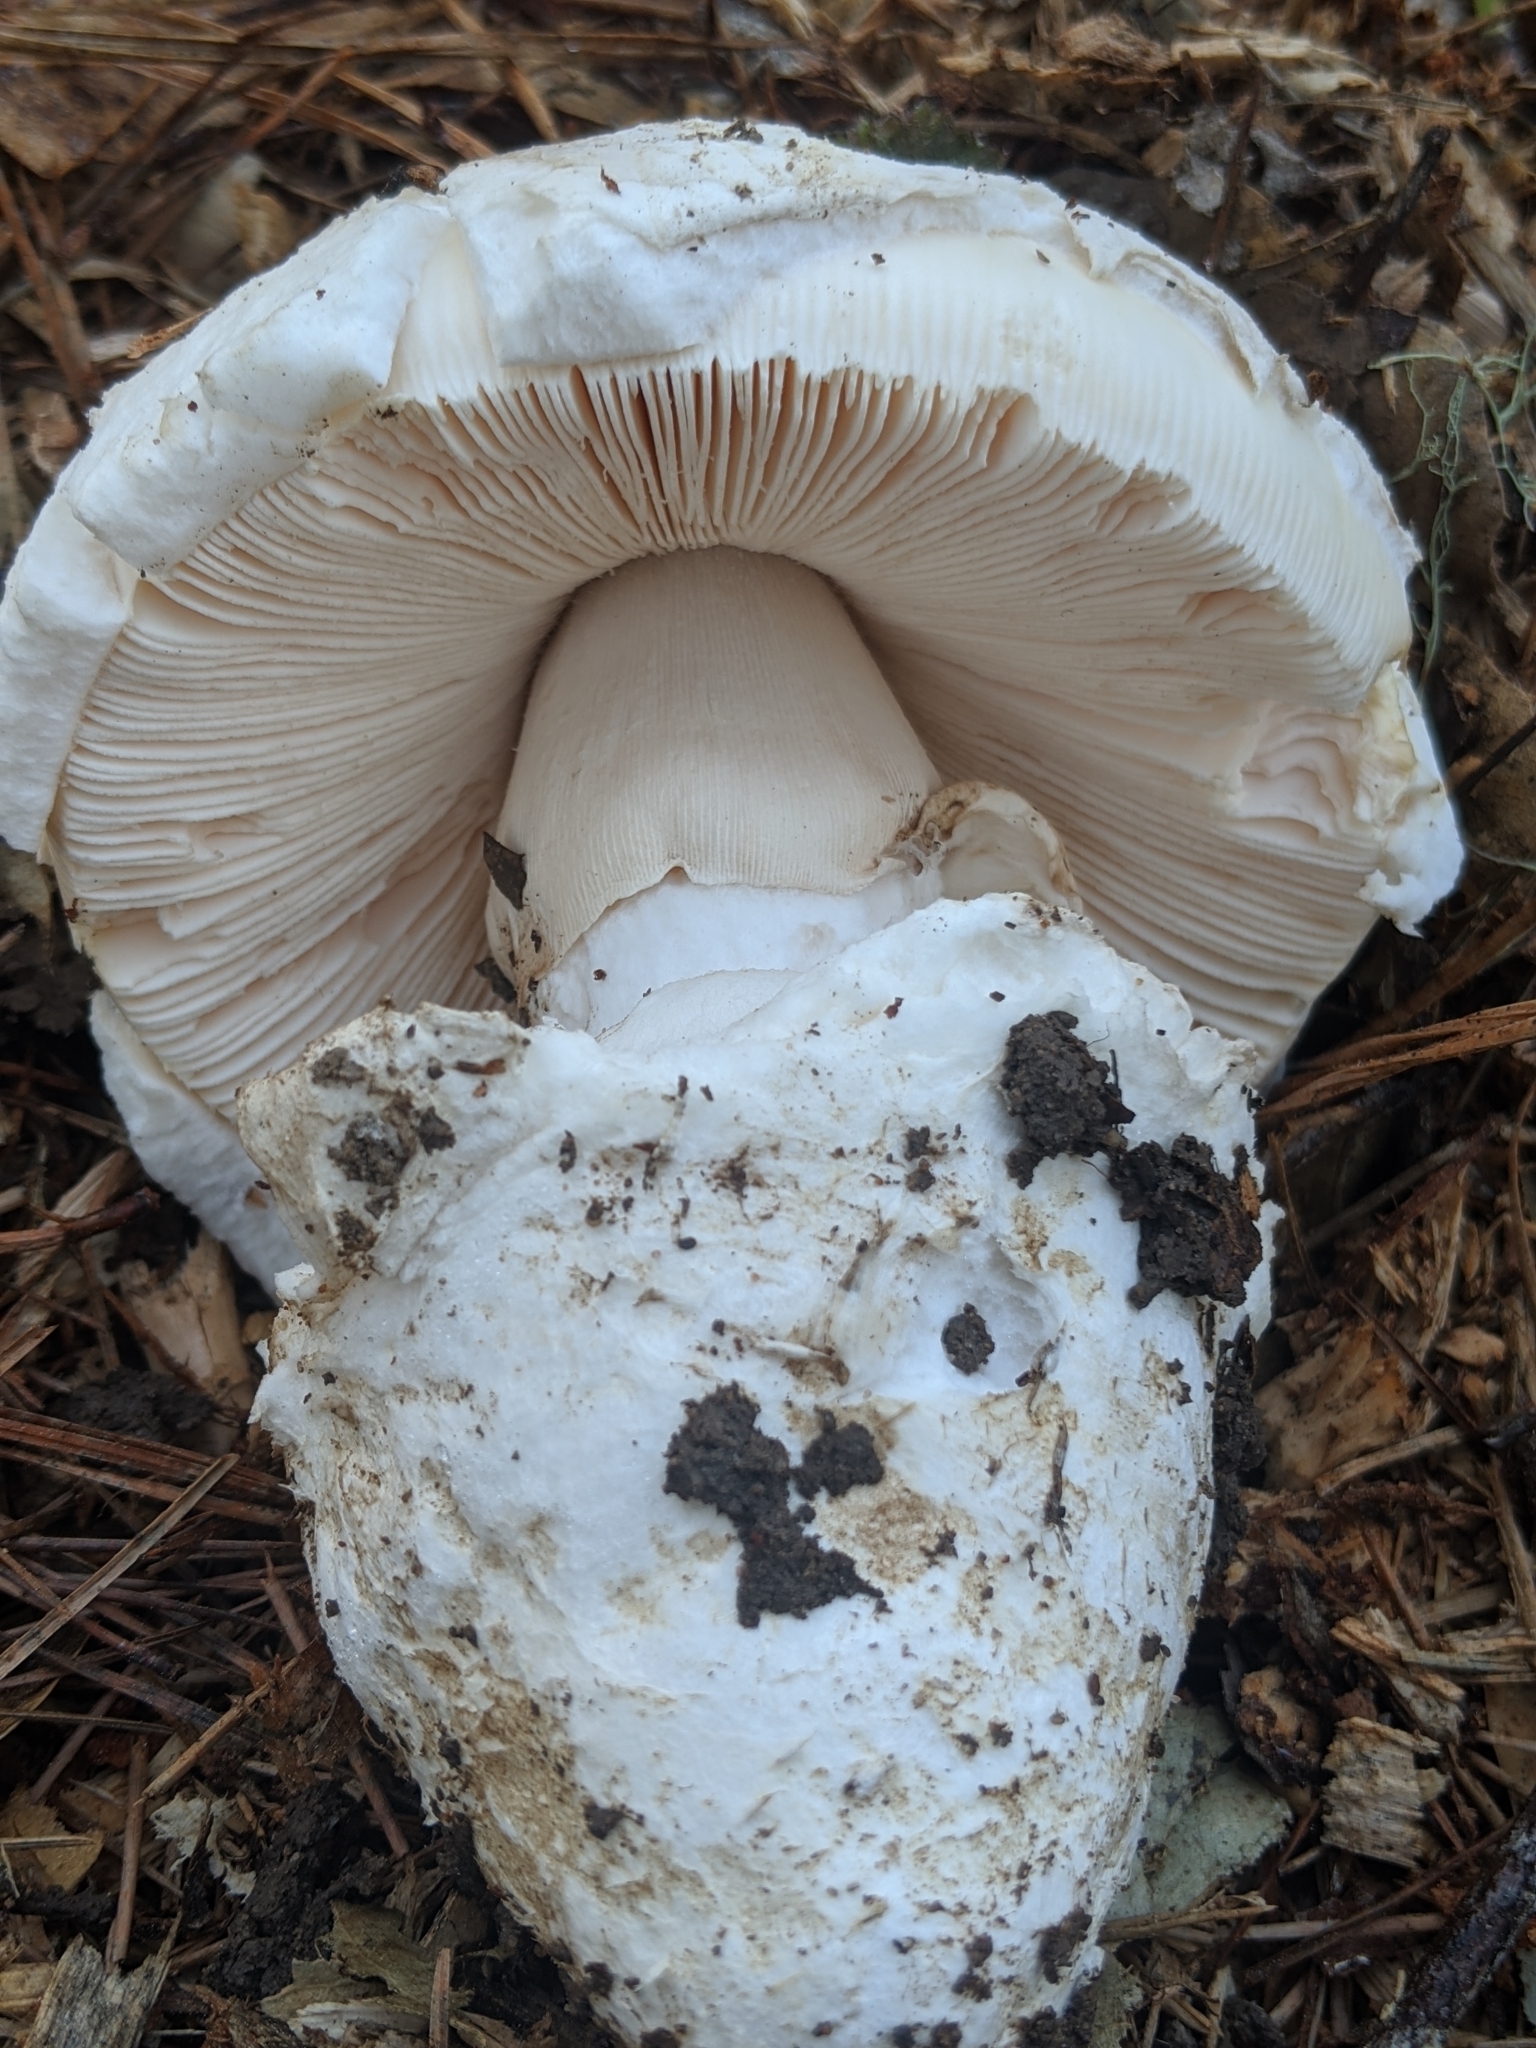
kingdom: Fungi
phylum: Basidiomycota
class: Agaricomycetes
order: Agaricales
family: Amanitaceae
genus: Amanita
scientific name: Amanita vernicoccora
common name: Spring coccora
